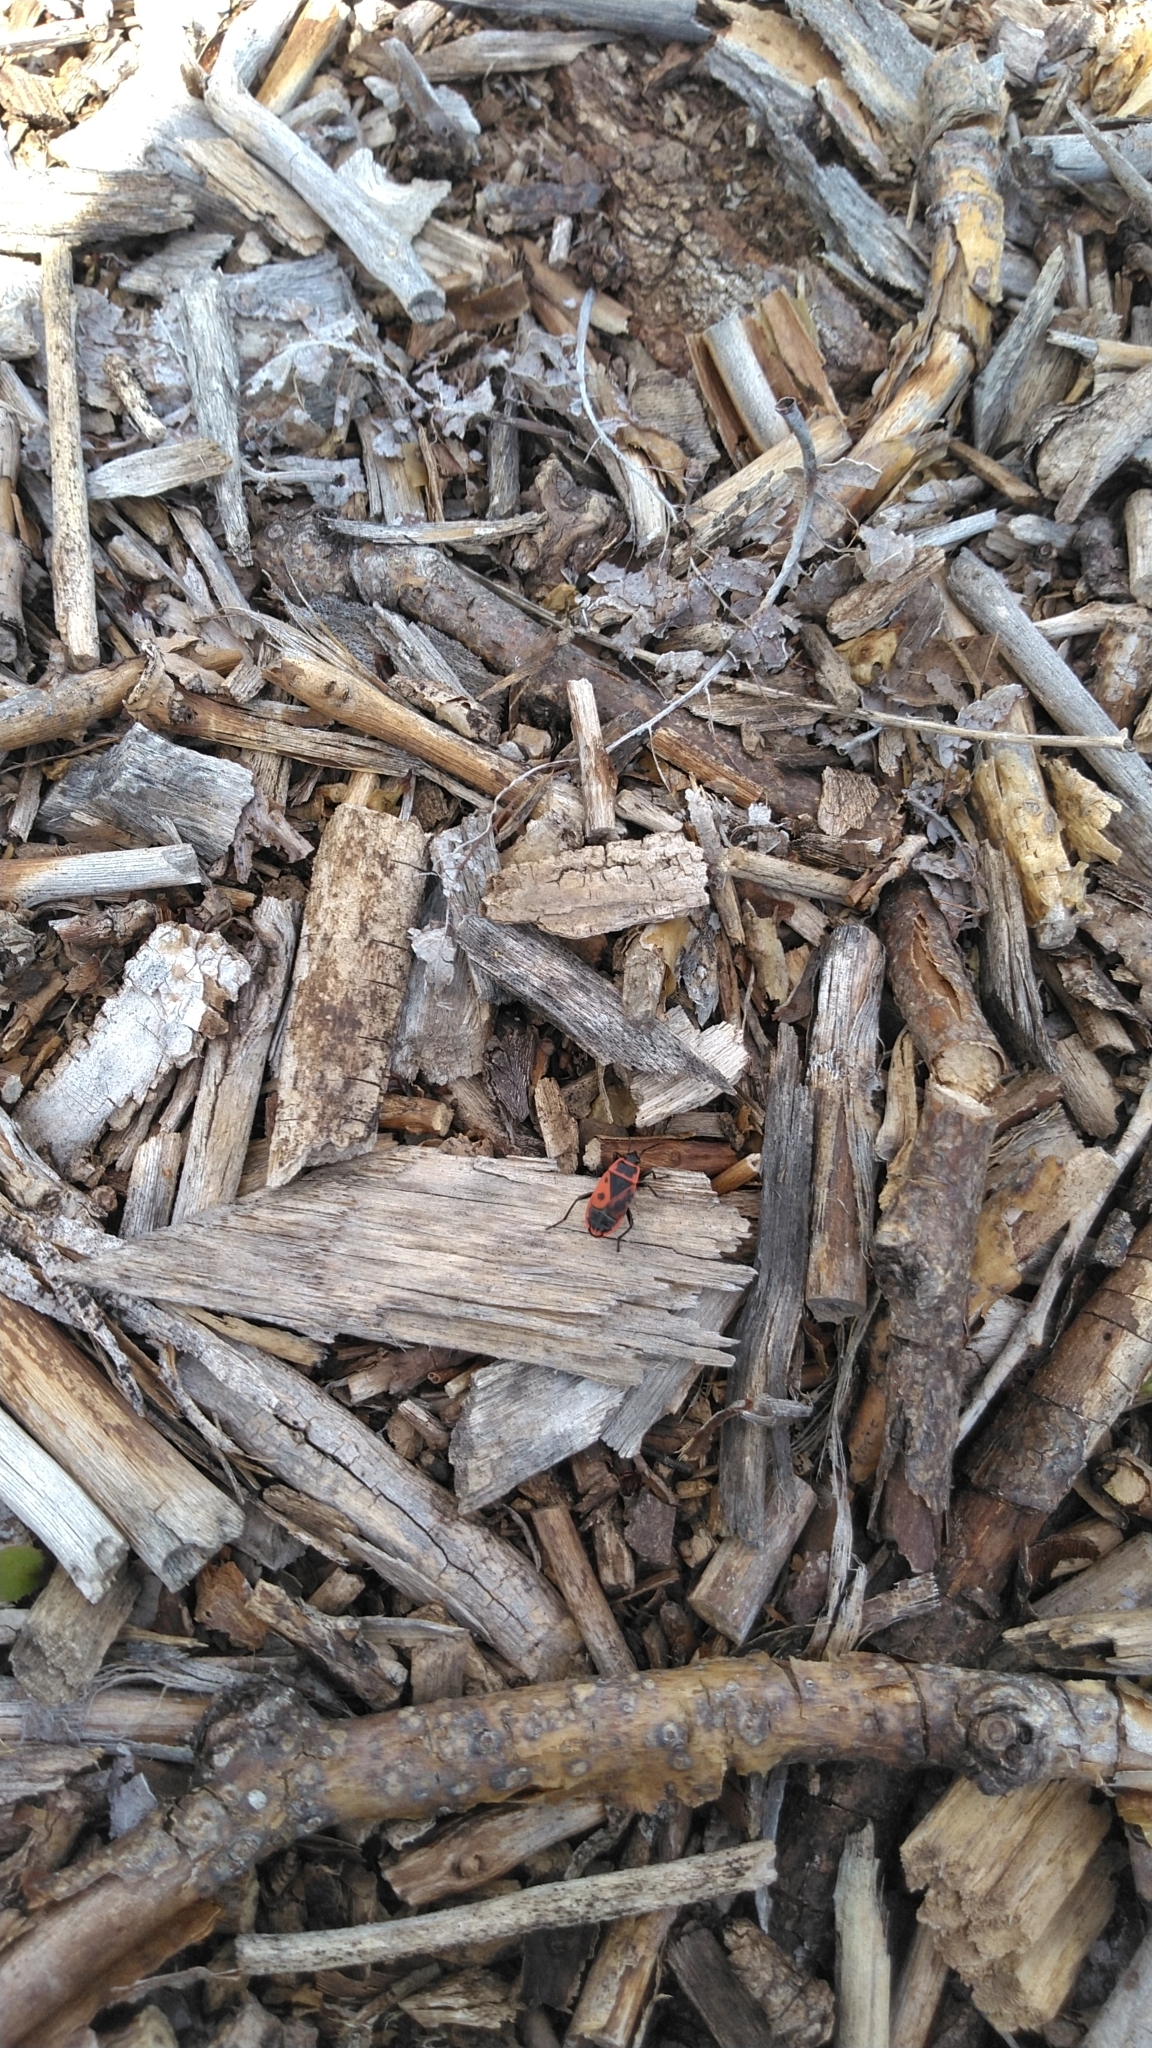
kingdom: Animalia
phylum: Arthropoda
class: Insecta
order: Hemiptera
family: Pyrrhocoridae
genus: Pyrrhocoris
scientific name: Pyrrhocoris apterus
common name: Firebug
